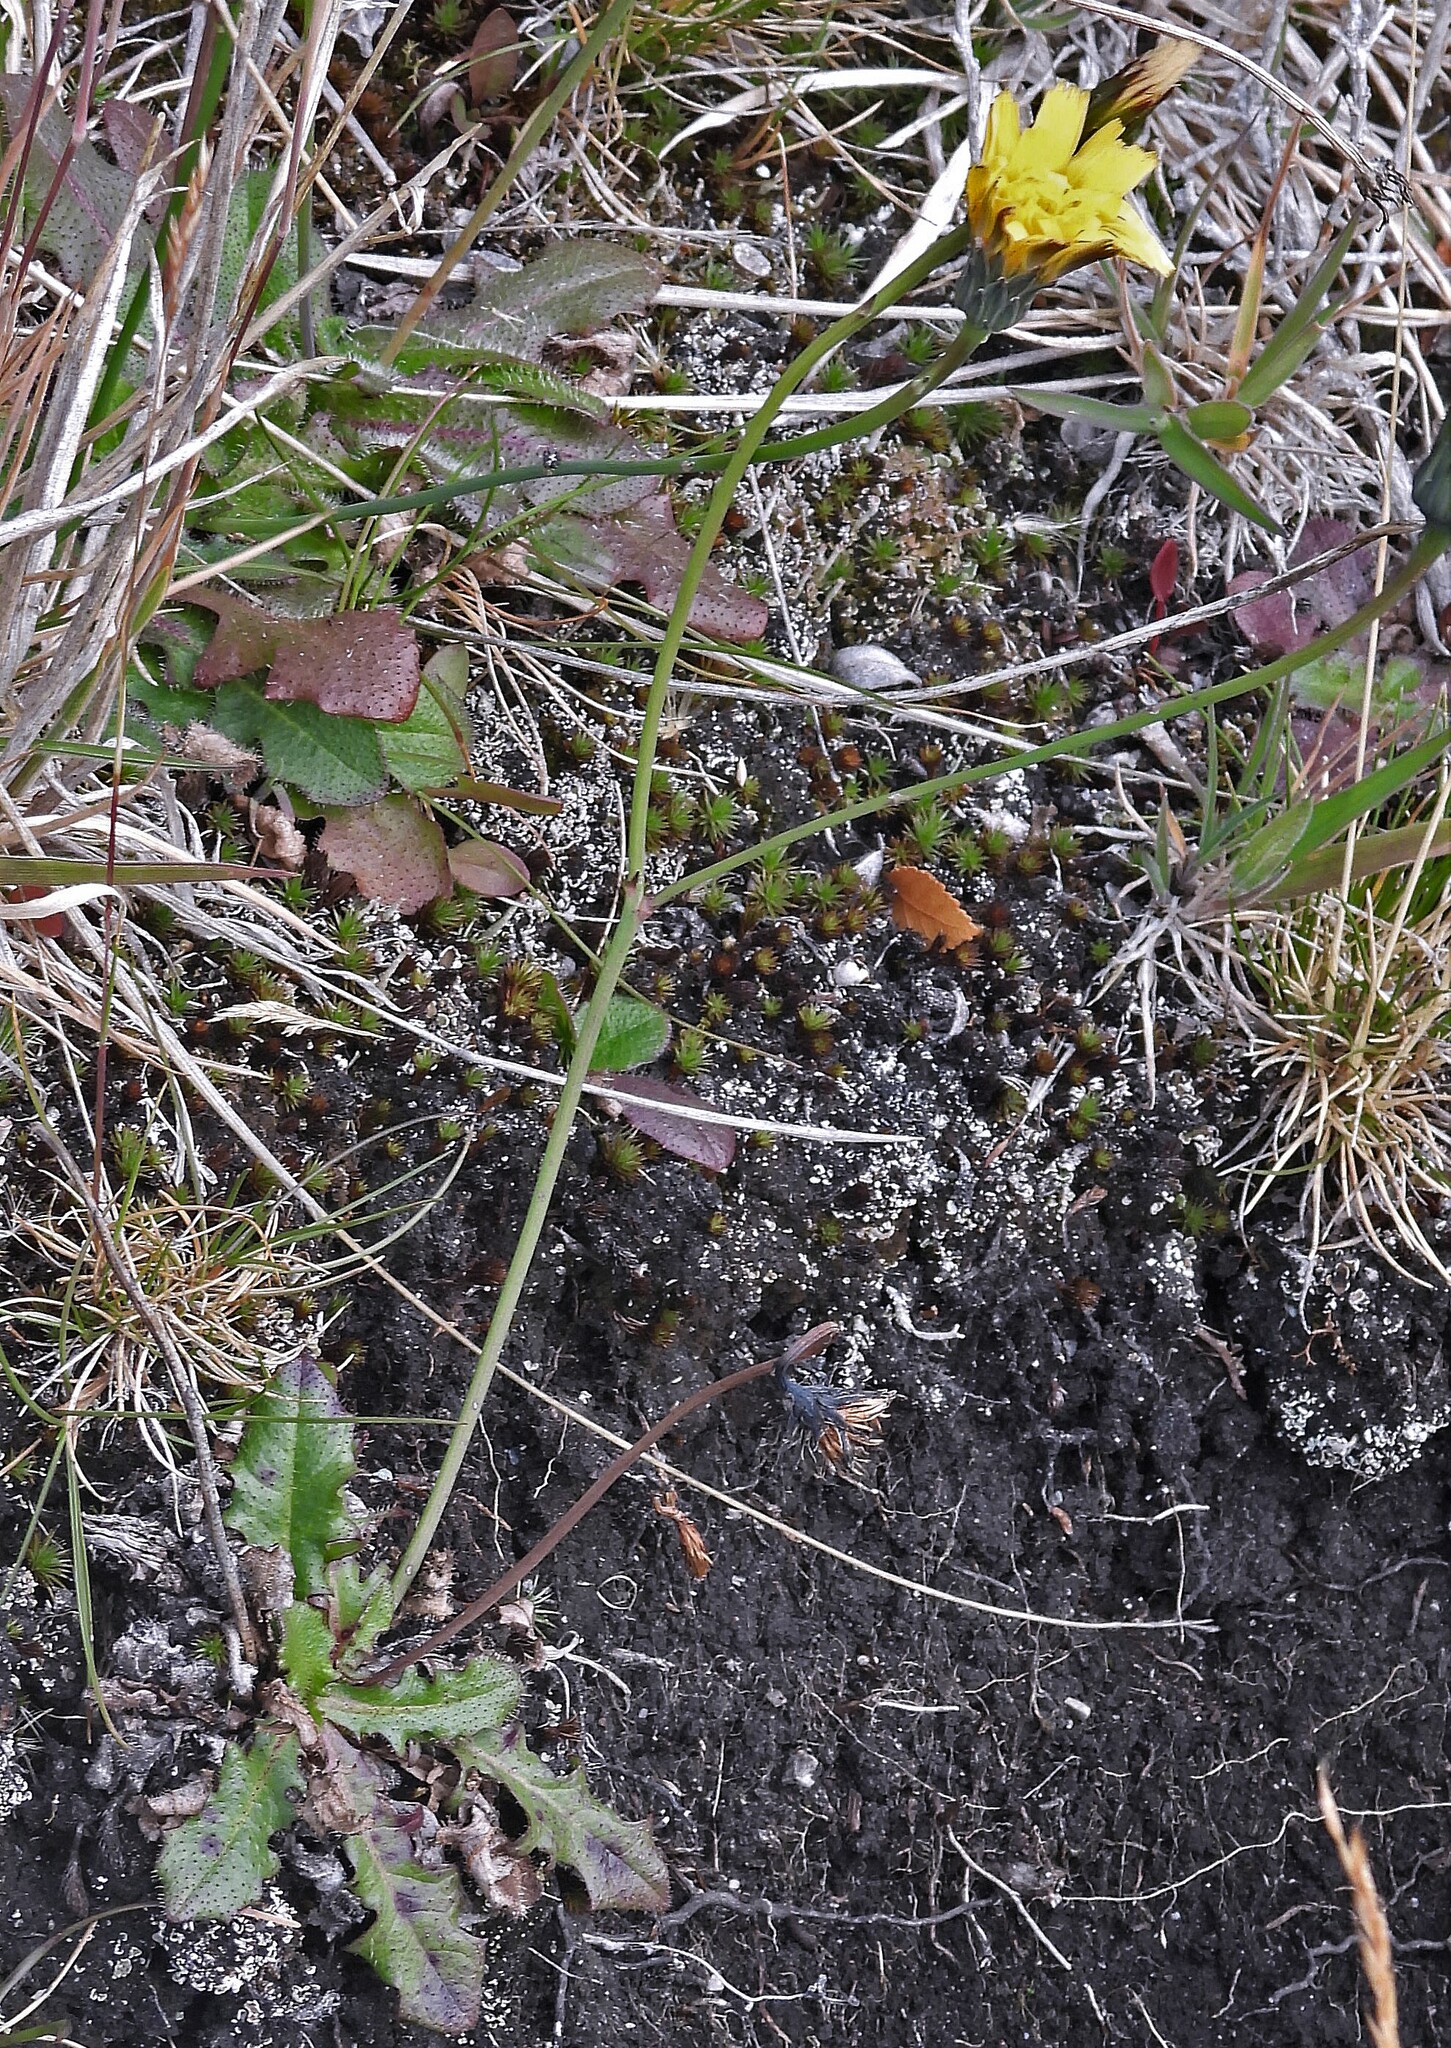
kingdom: Plantae
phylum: Tracheophyta
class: Magnoliopsida
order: Asterales
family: Asteraceae
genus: Hypochaeris
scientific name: Hypochaeris radicata
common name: Flatweed
